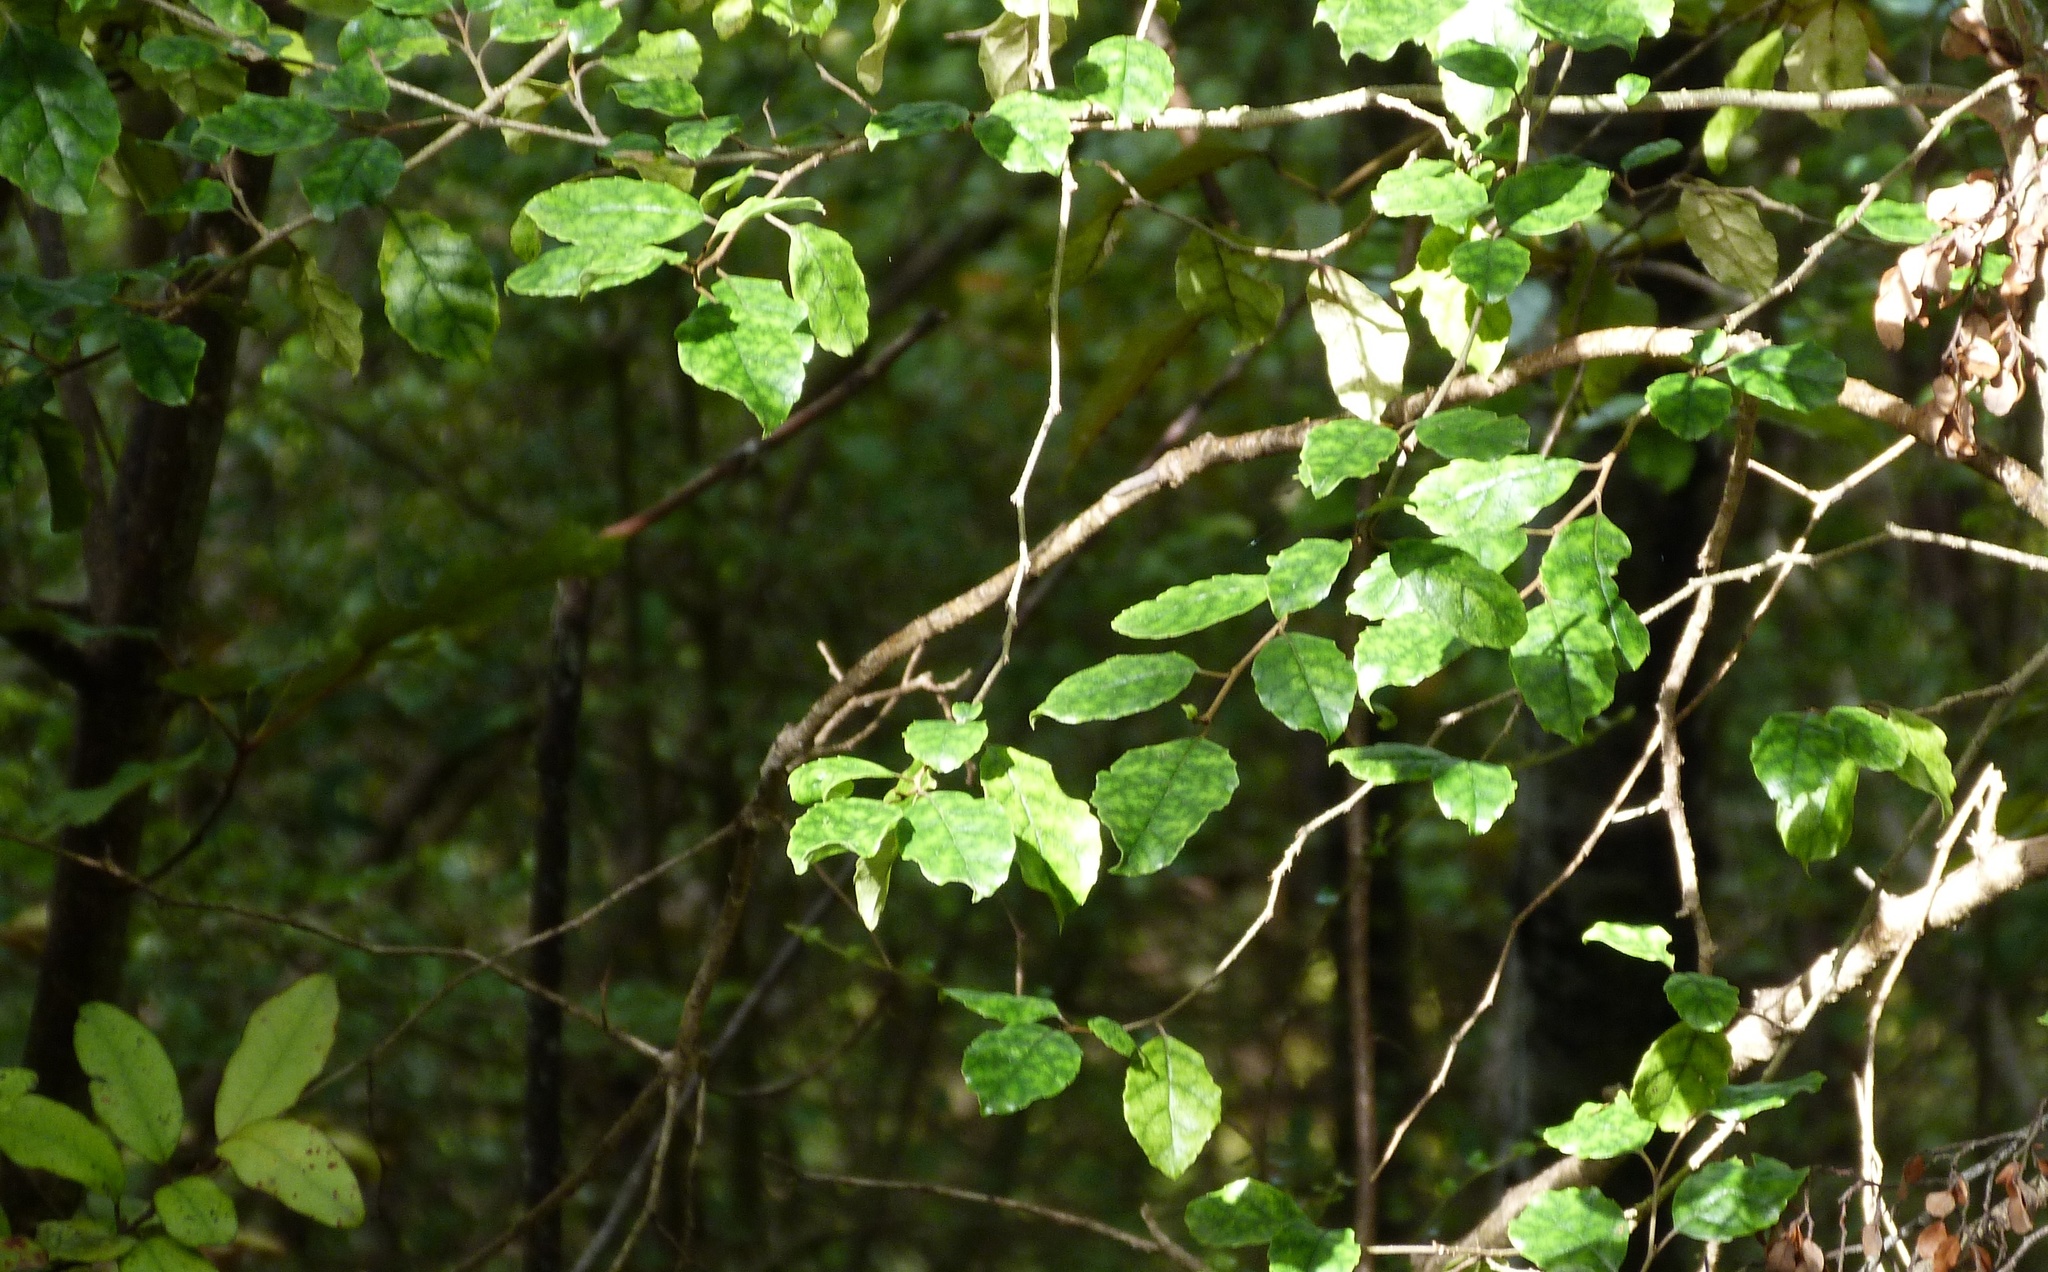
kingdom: Plantae
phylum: Tracheophyta
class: Magnoliopsida
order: Asterales
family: Rousseaceae
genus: Carpodetus
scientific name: Carpodetus serratus
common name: White mapau
